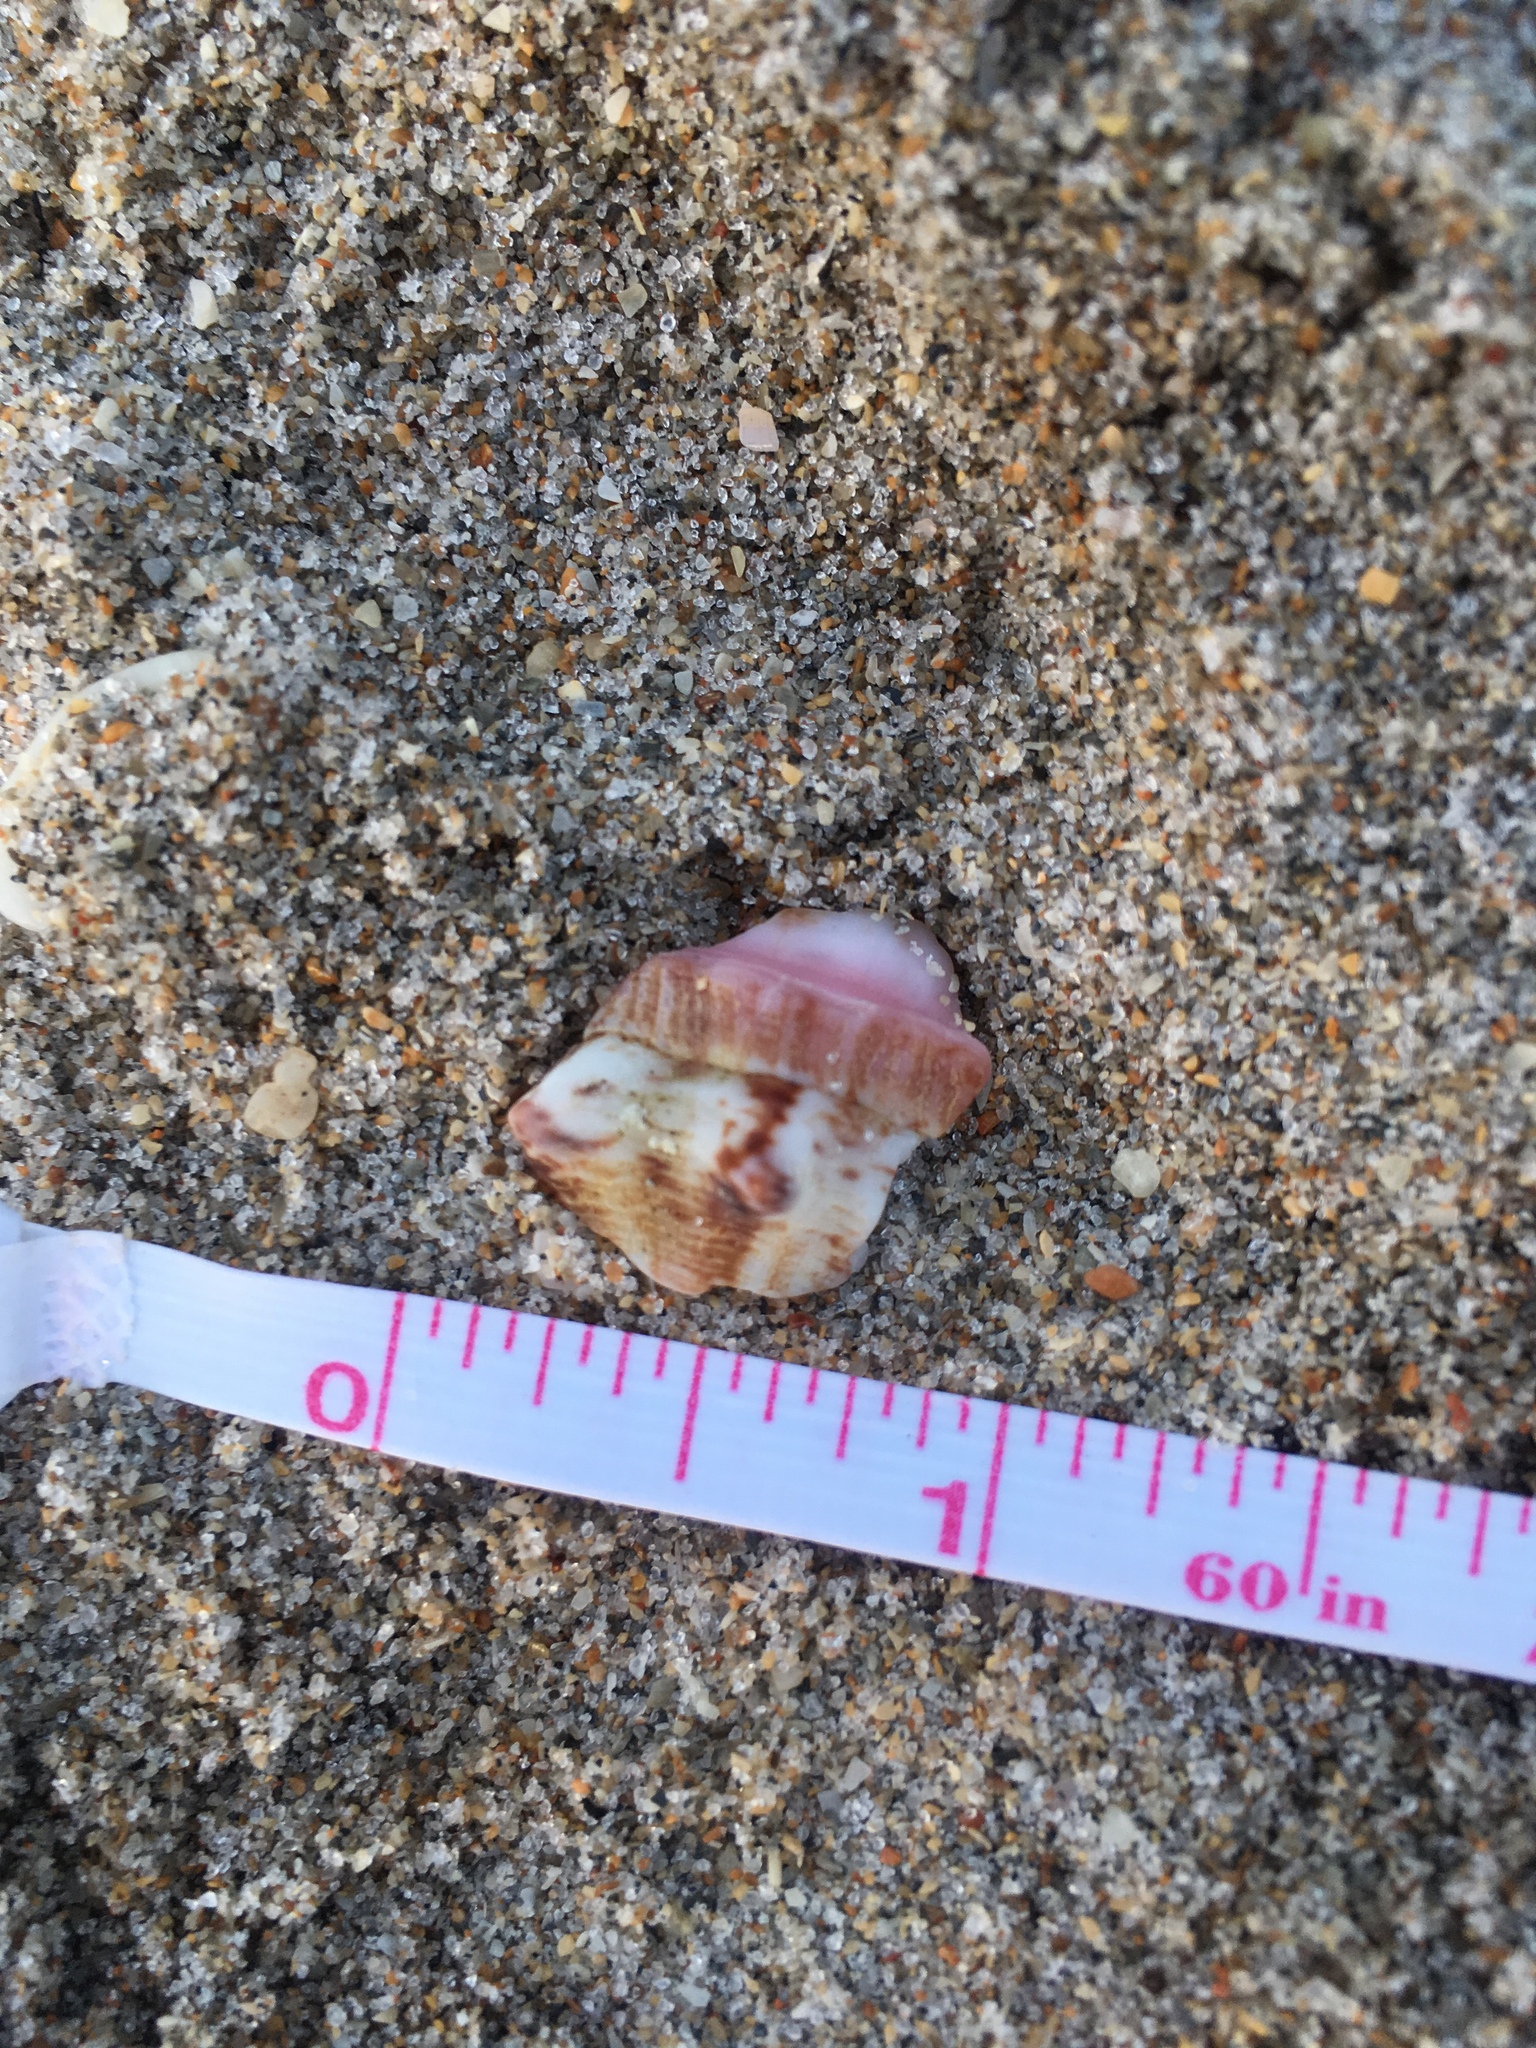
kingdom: Animalia
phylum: Mollusca
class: Gastropoda
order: Littorinimorpha
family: Strombidae
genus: Aliger
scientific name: Aliger gigas
